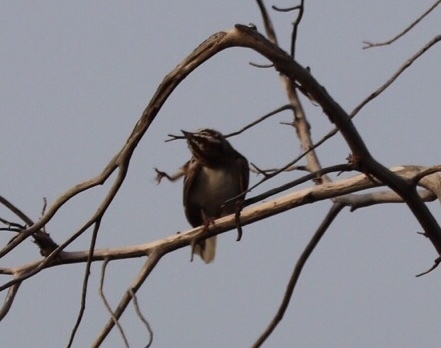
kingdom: Animalia
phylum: Chordata
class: Aves
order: Passeriformes
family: Passerellidae
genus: Chondestes
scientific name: Chondestes grammacus
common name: Lark sparrow
